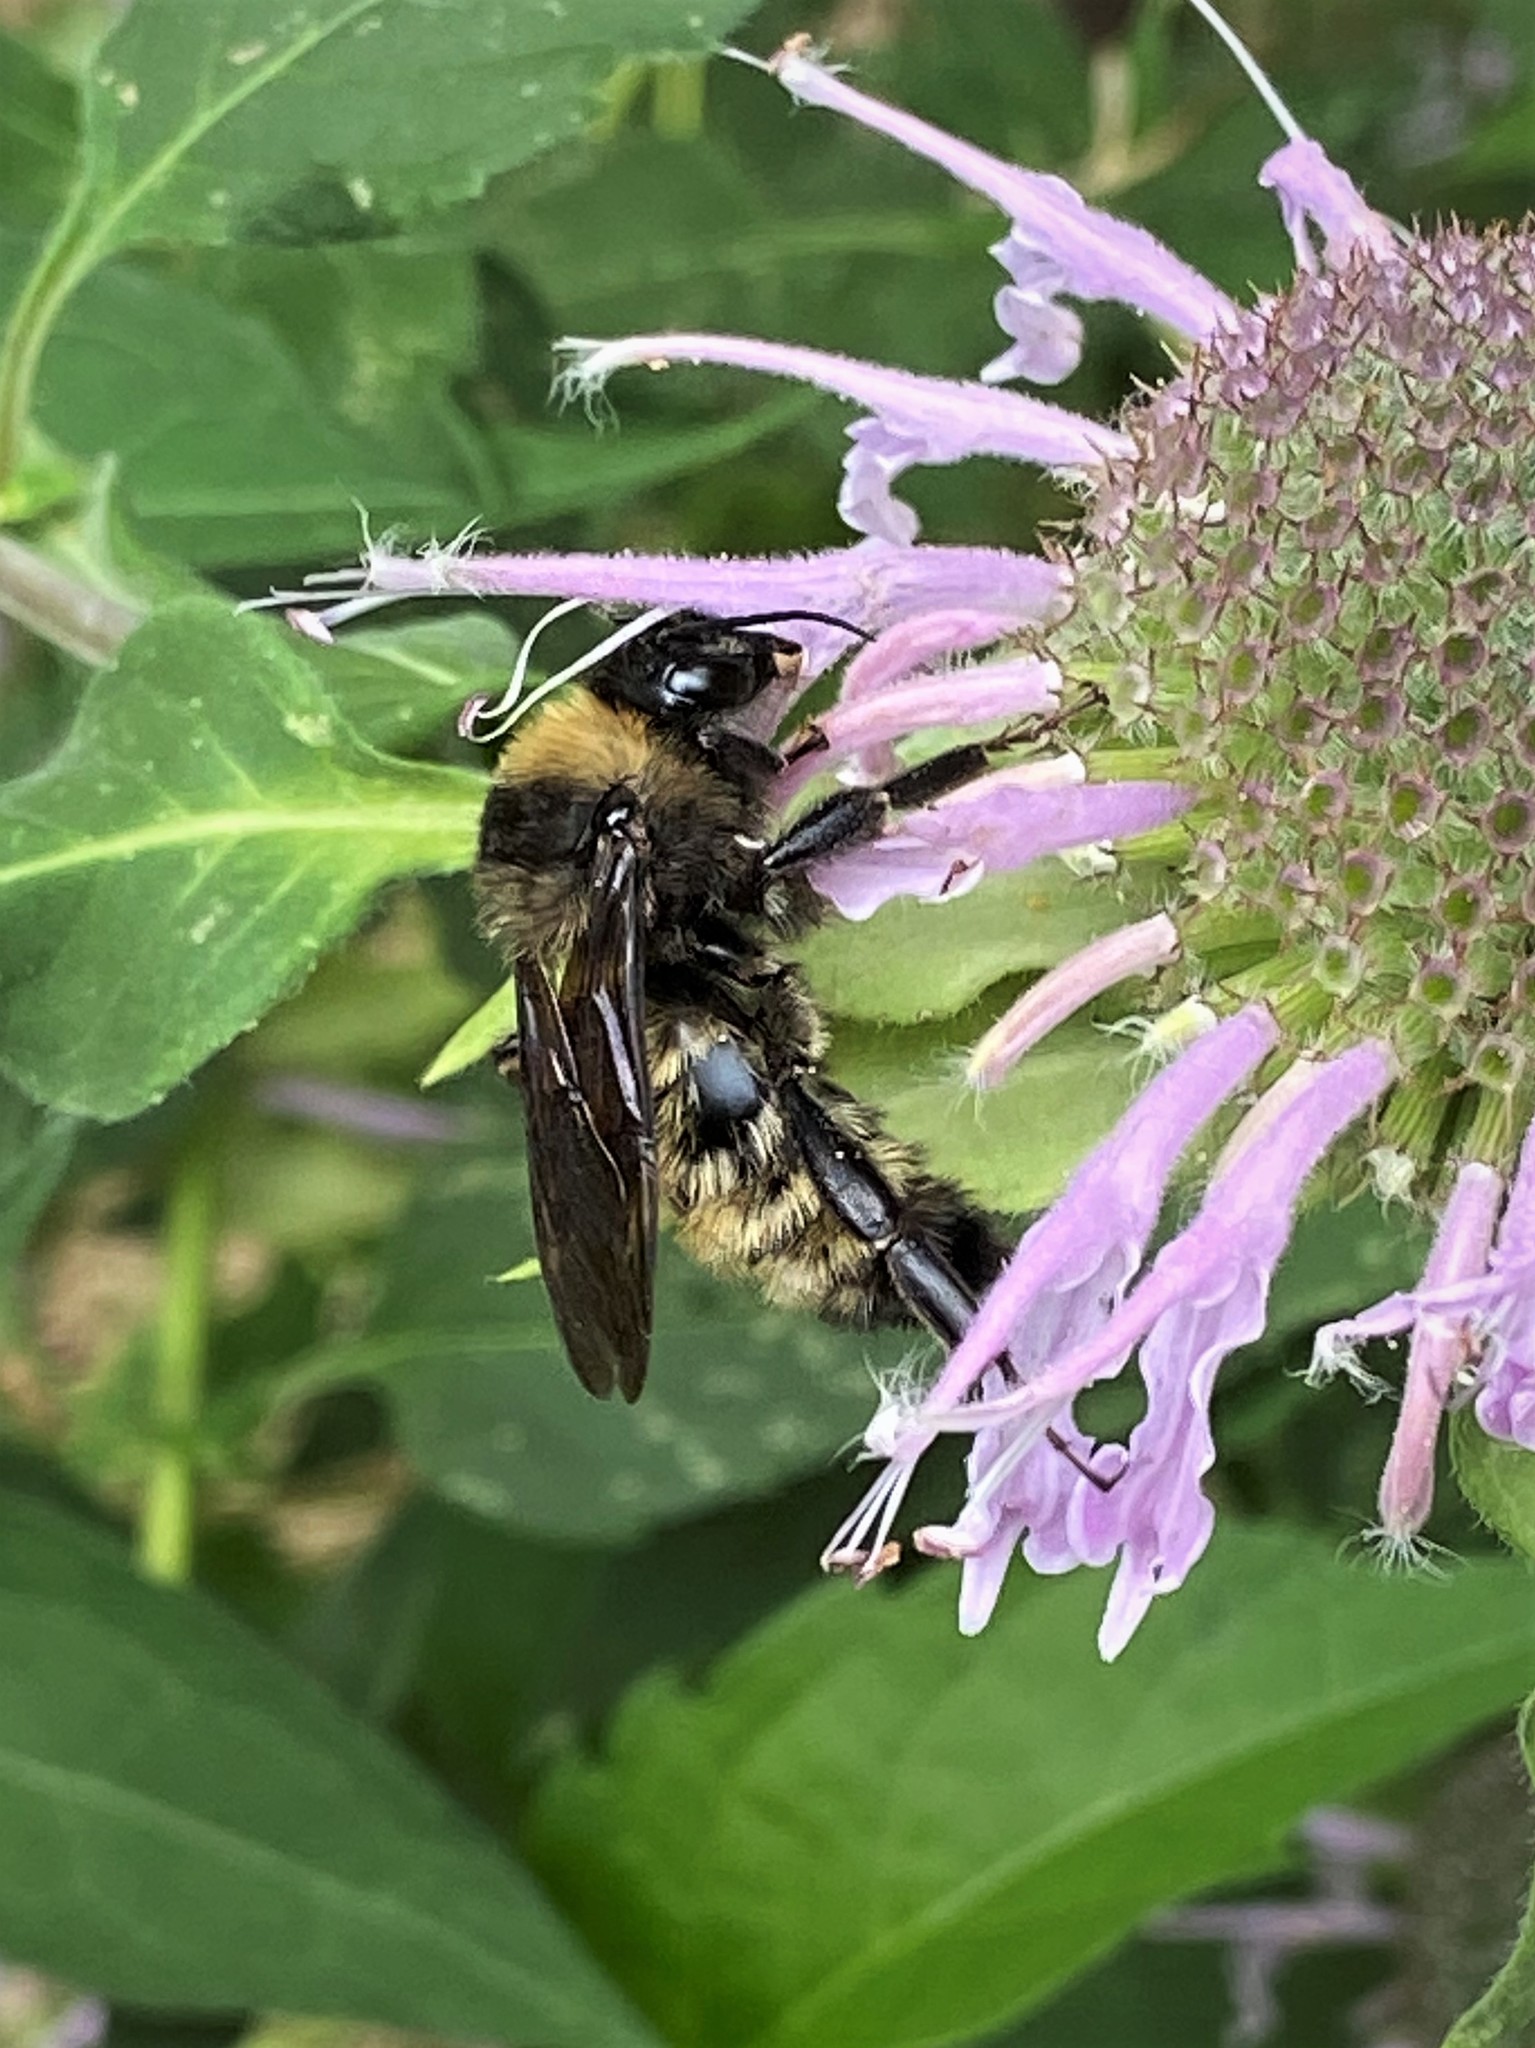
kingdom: Animalia
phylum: Arthropoda
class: Insecta
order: Hymenoptera
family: Apidae
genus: Bombus
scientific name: Bombus pensylvanicus
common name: Bumble bee
